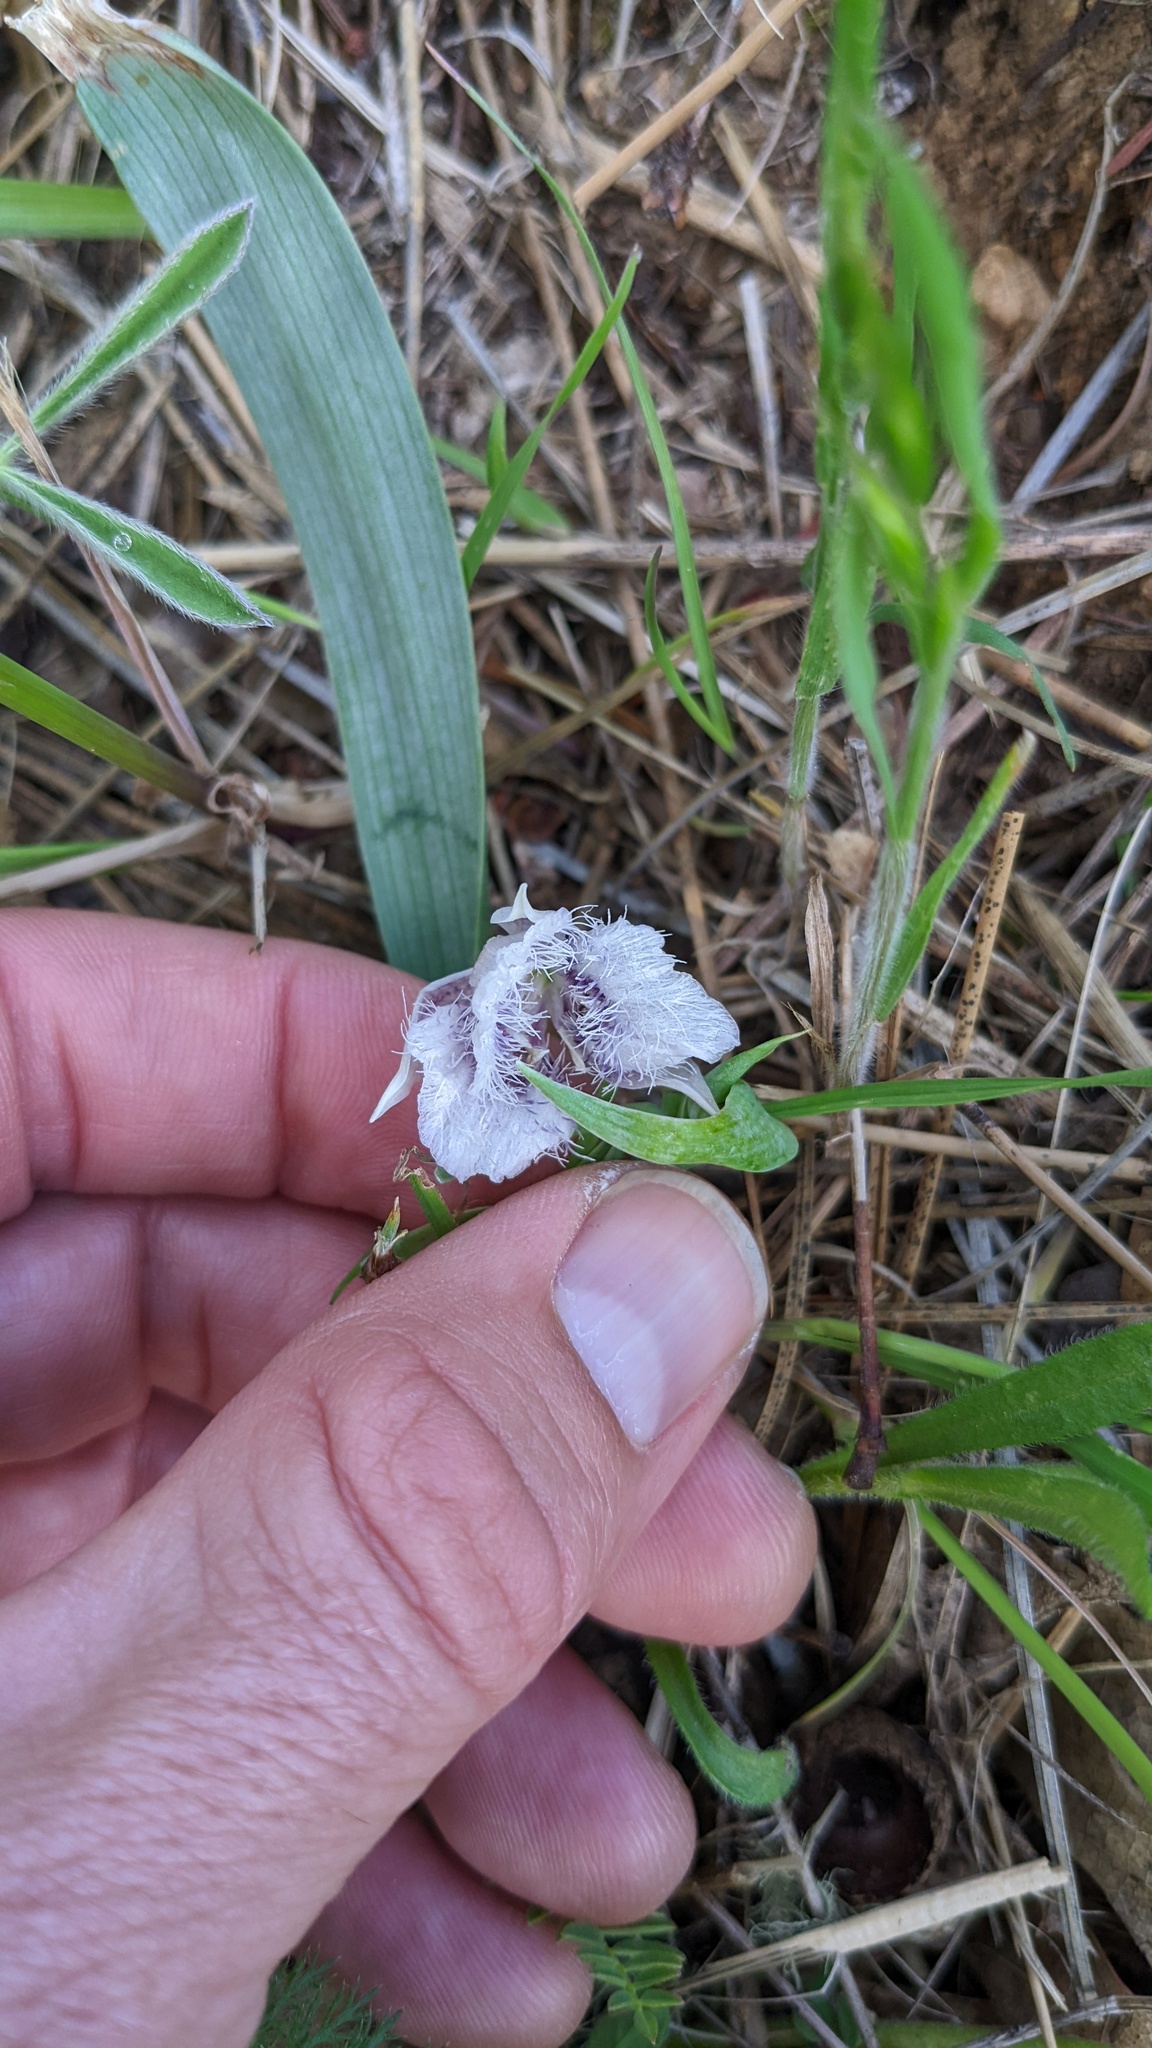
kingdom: Plantae
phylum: Tracheophyta
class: Liliopsida
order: Liliales
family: Liliaceae
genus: Calochortus
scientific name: Calochortus tolmiei
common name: Pussy-ears
